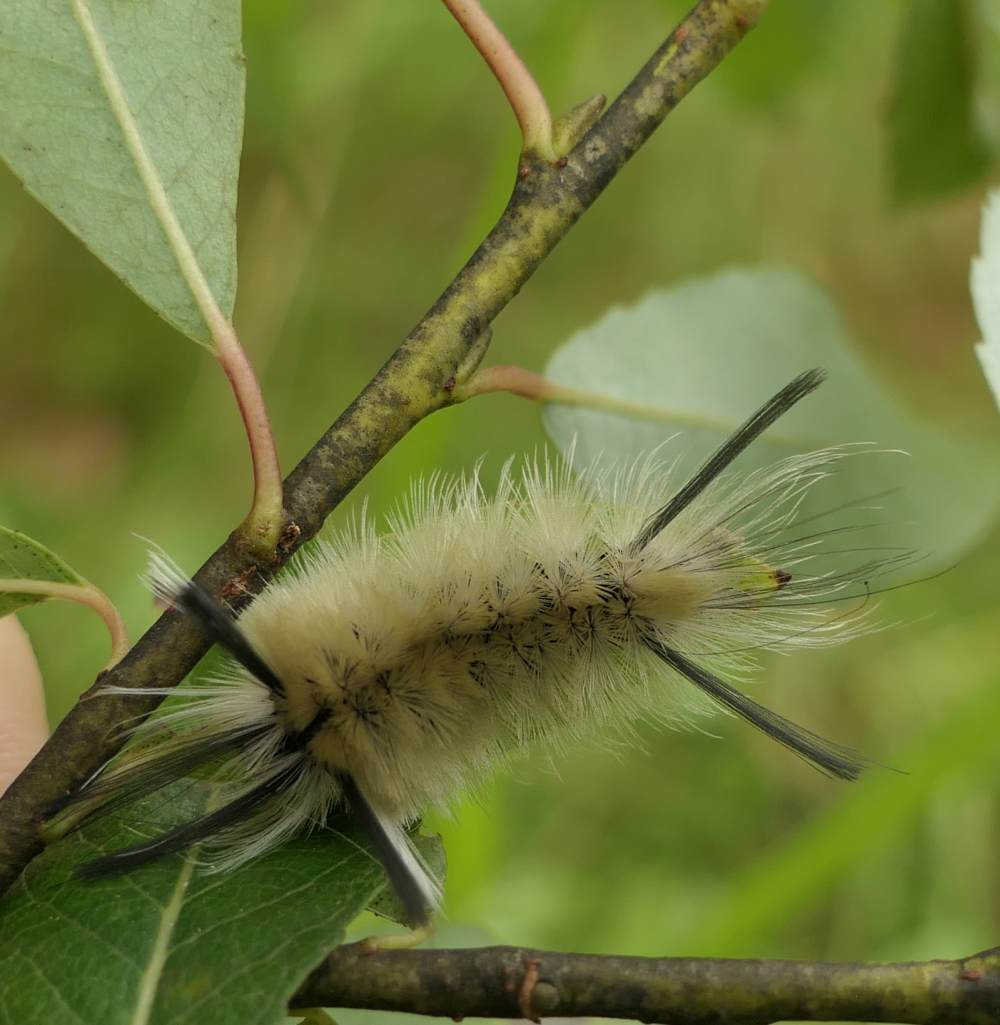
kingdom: Animalia
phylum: Arthropoda
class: Insecta
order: Lepidoptera
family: Erebidae
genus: Halysidota
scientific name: Halysidota tessellaris
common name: Banded tussock moth
